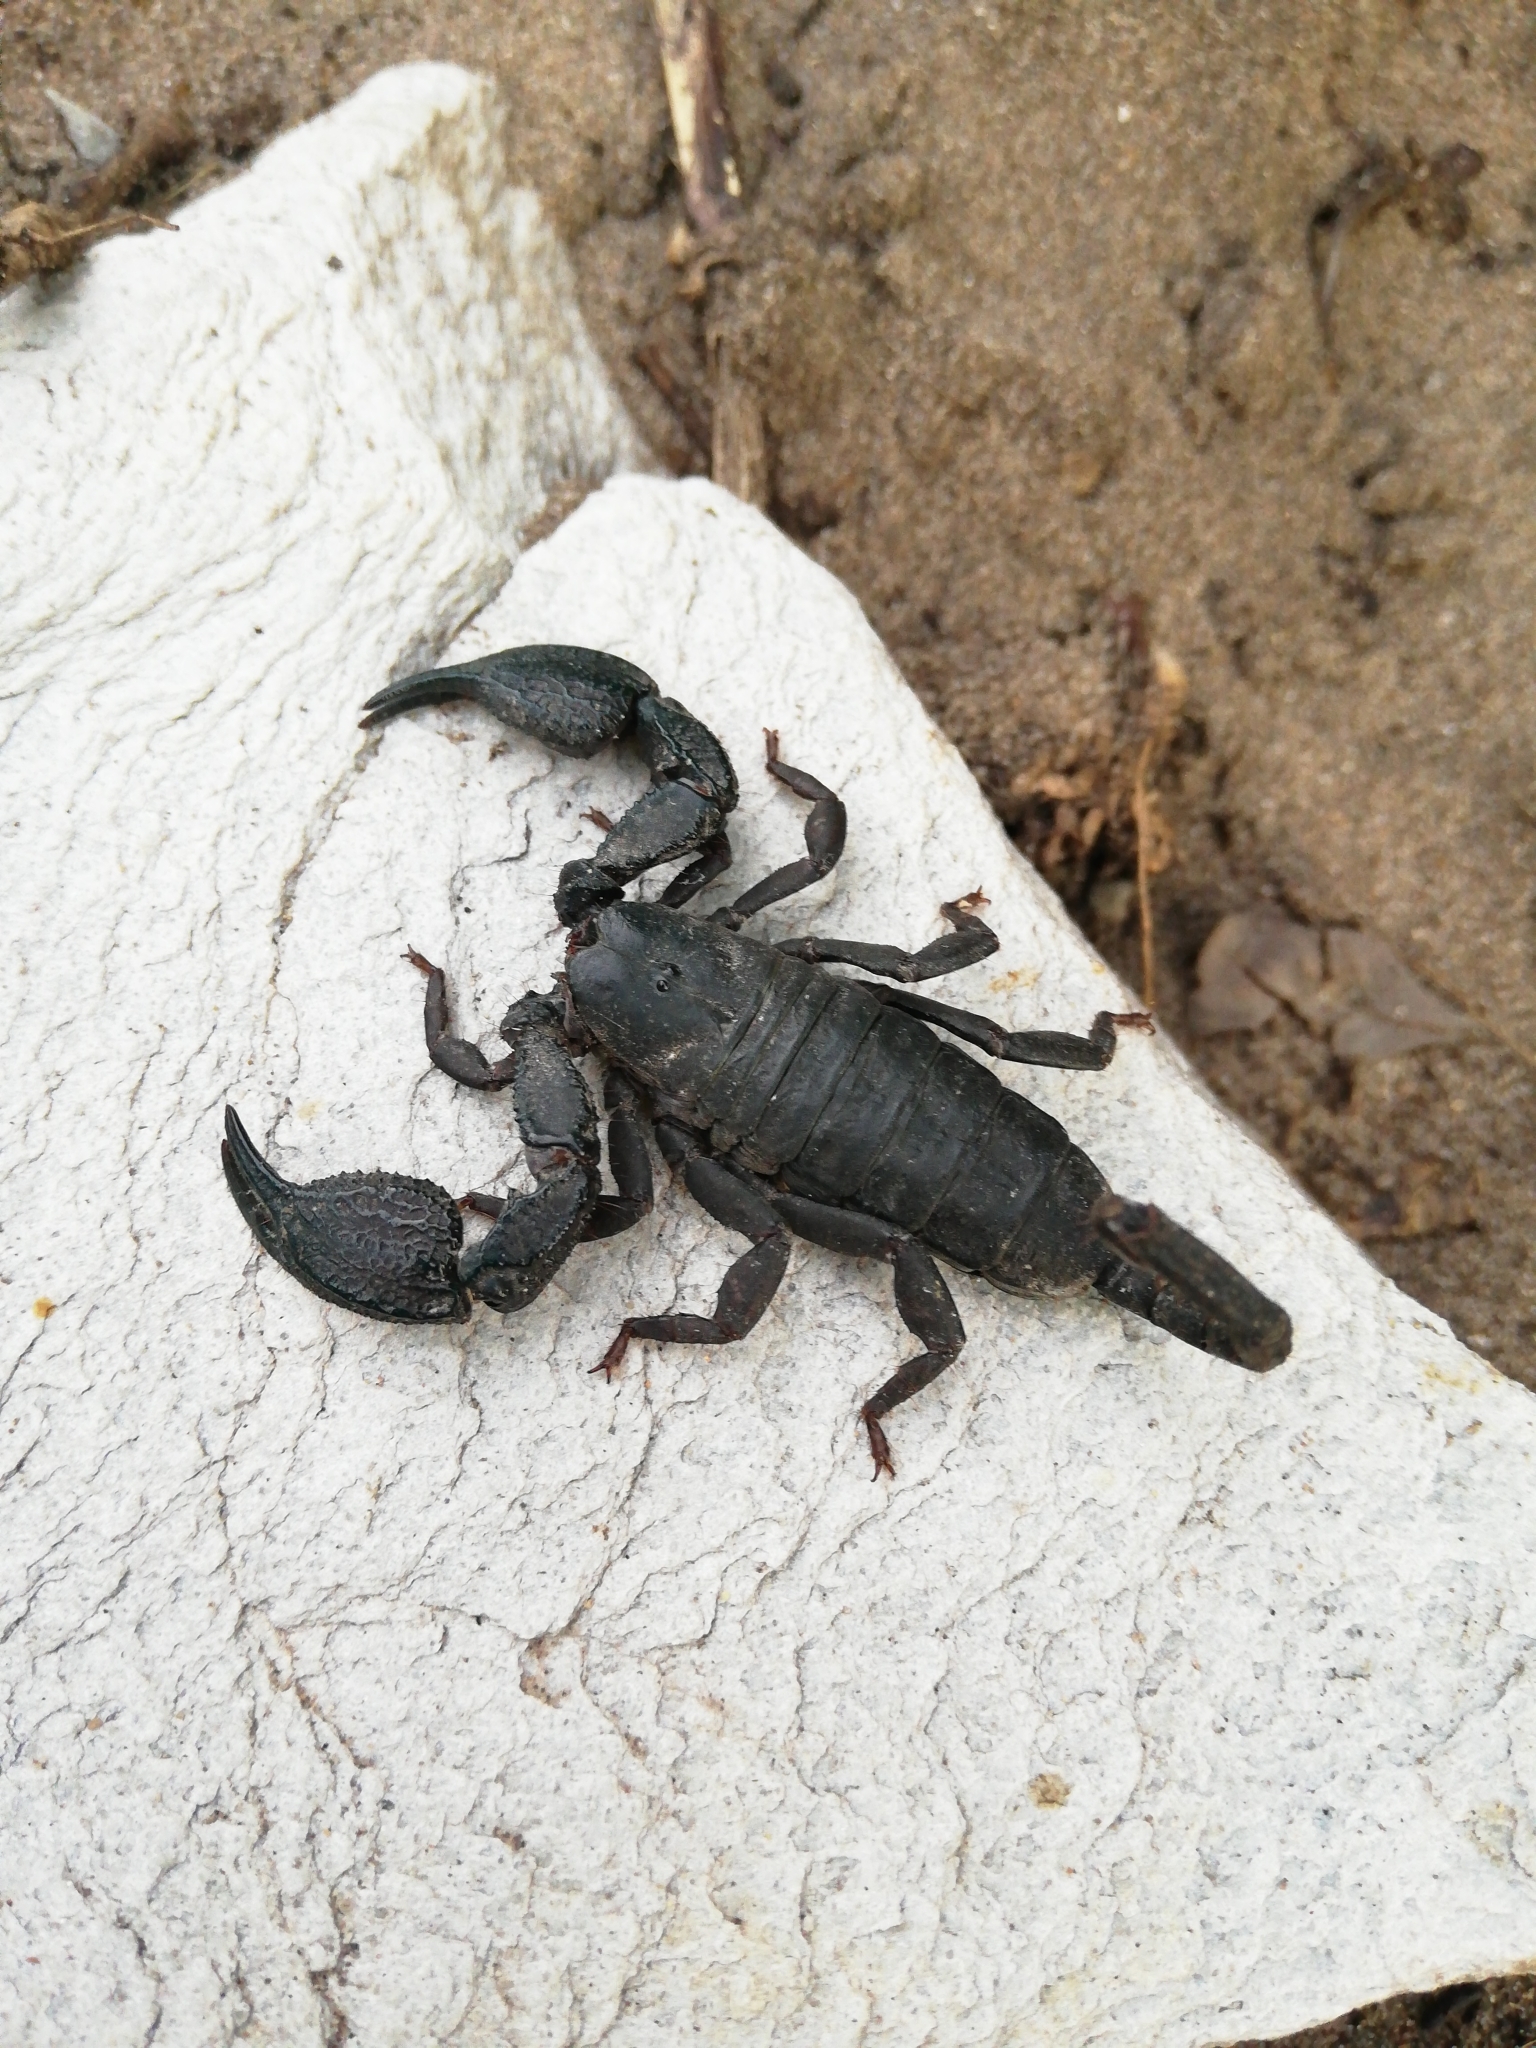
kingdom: Animalia
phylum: Arthropoda
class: Arachnida
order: Scorpiones
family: Hormuridae
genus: Opisthacanthus
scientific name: Opisthacanthus capensis
